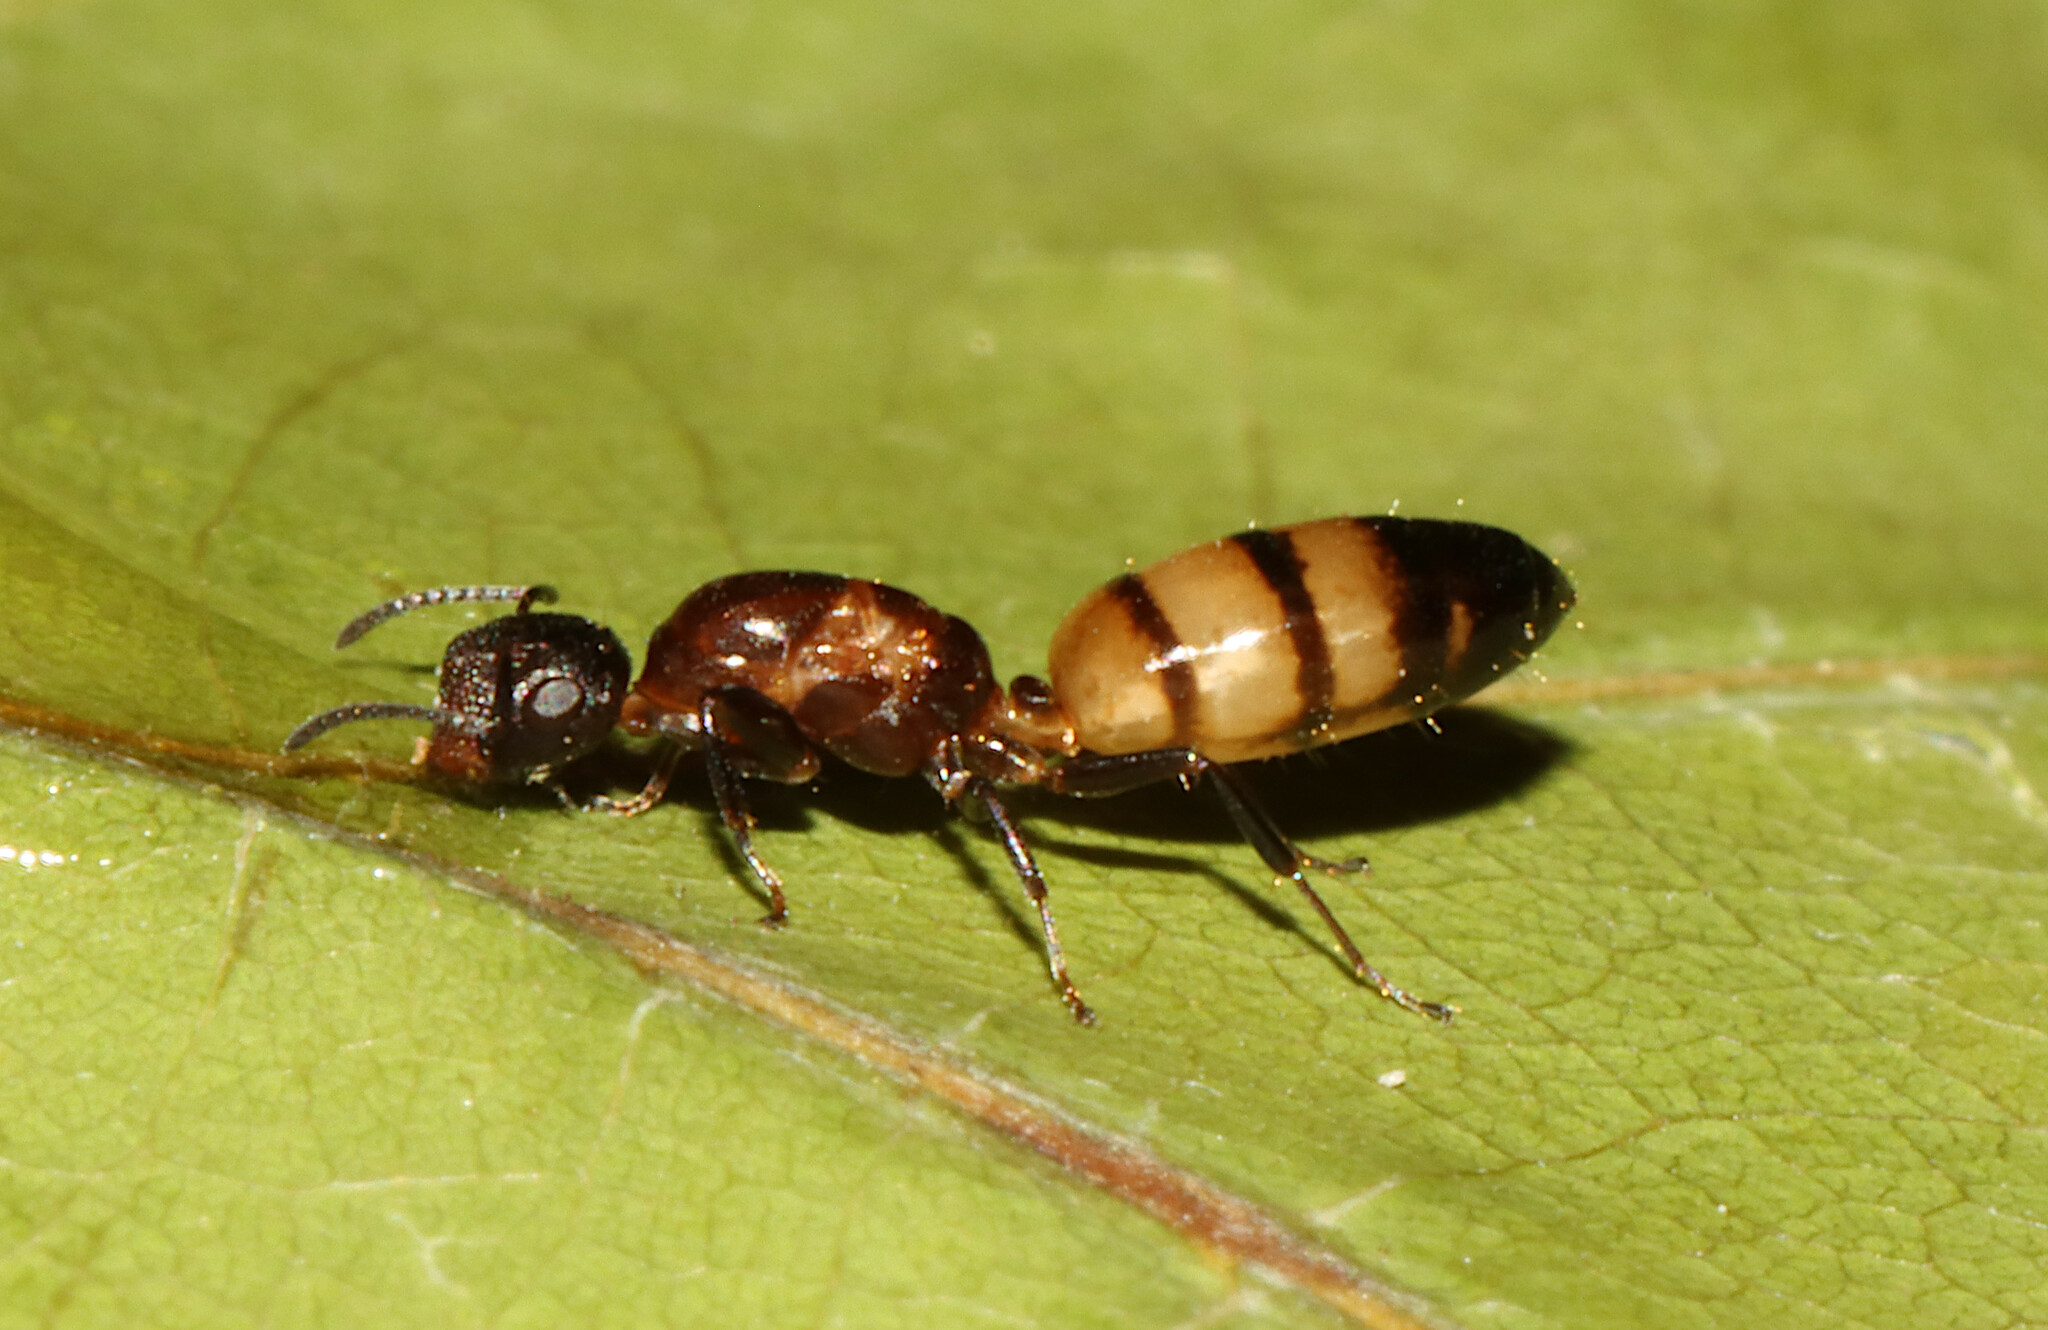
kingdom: Animalia
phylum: Arthropoda
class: Insecta
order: Hymenoptera
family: Formicidae
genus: Colobopsis
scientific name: Colobopsis impressa
